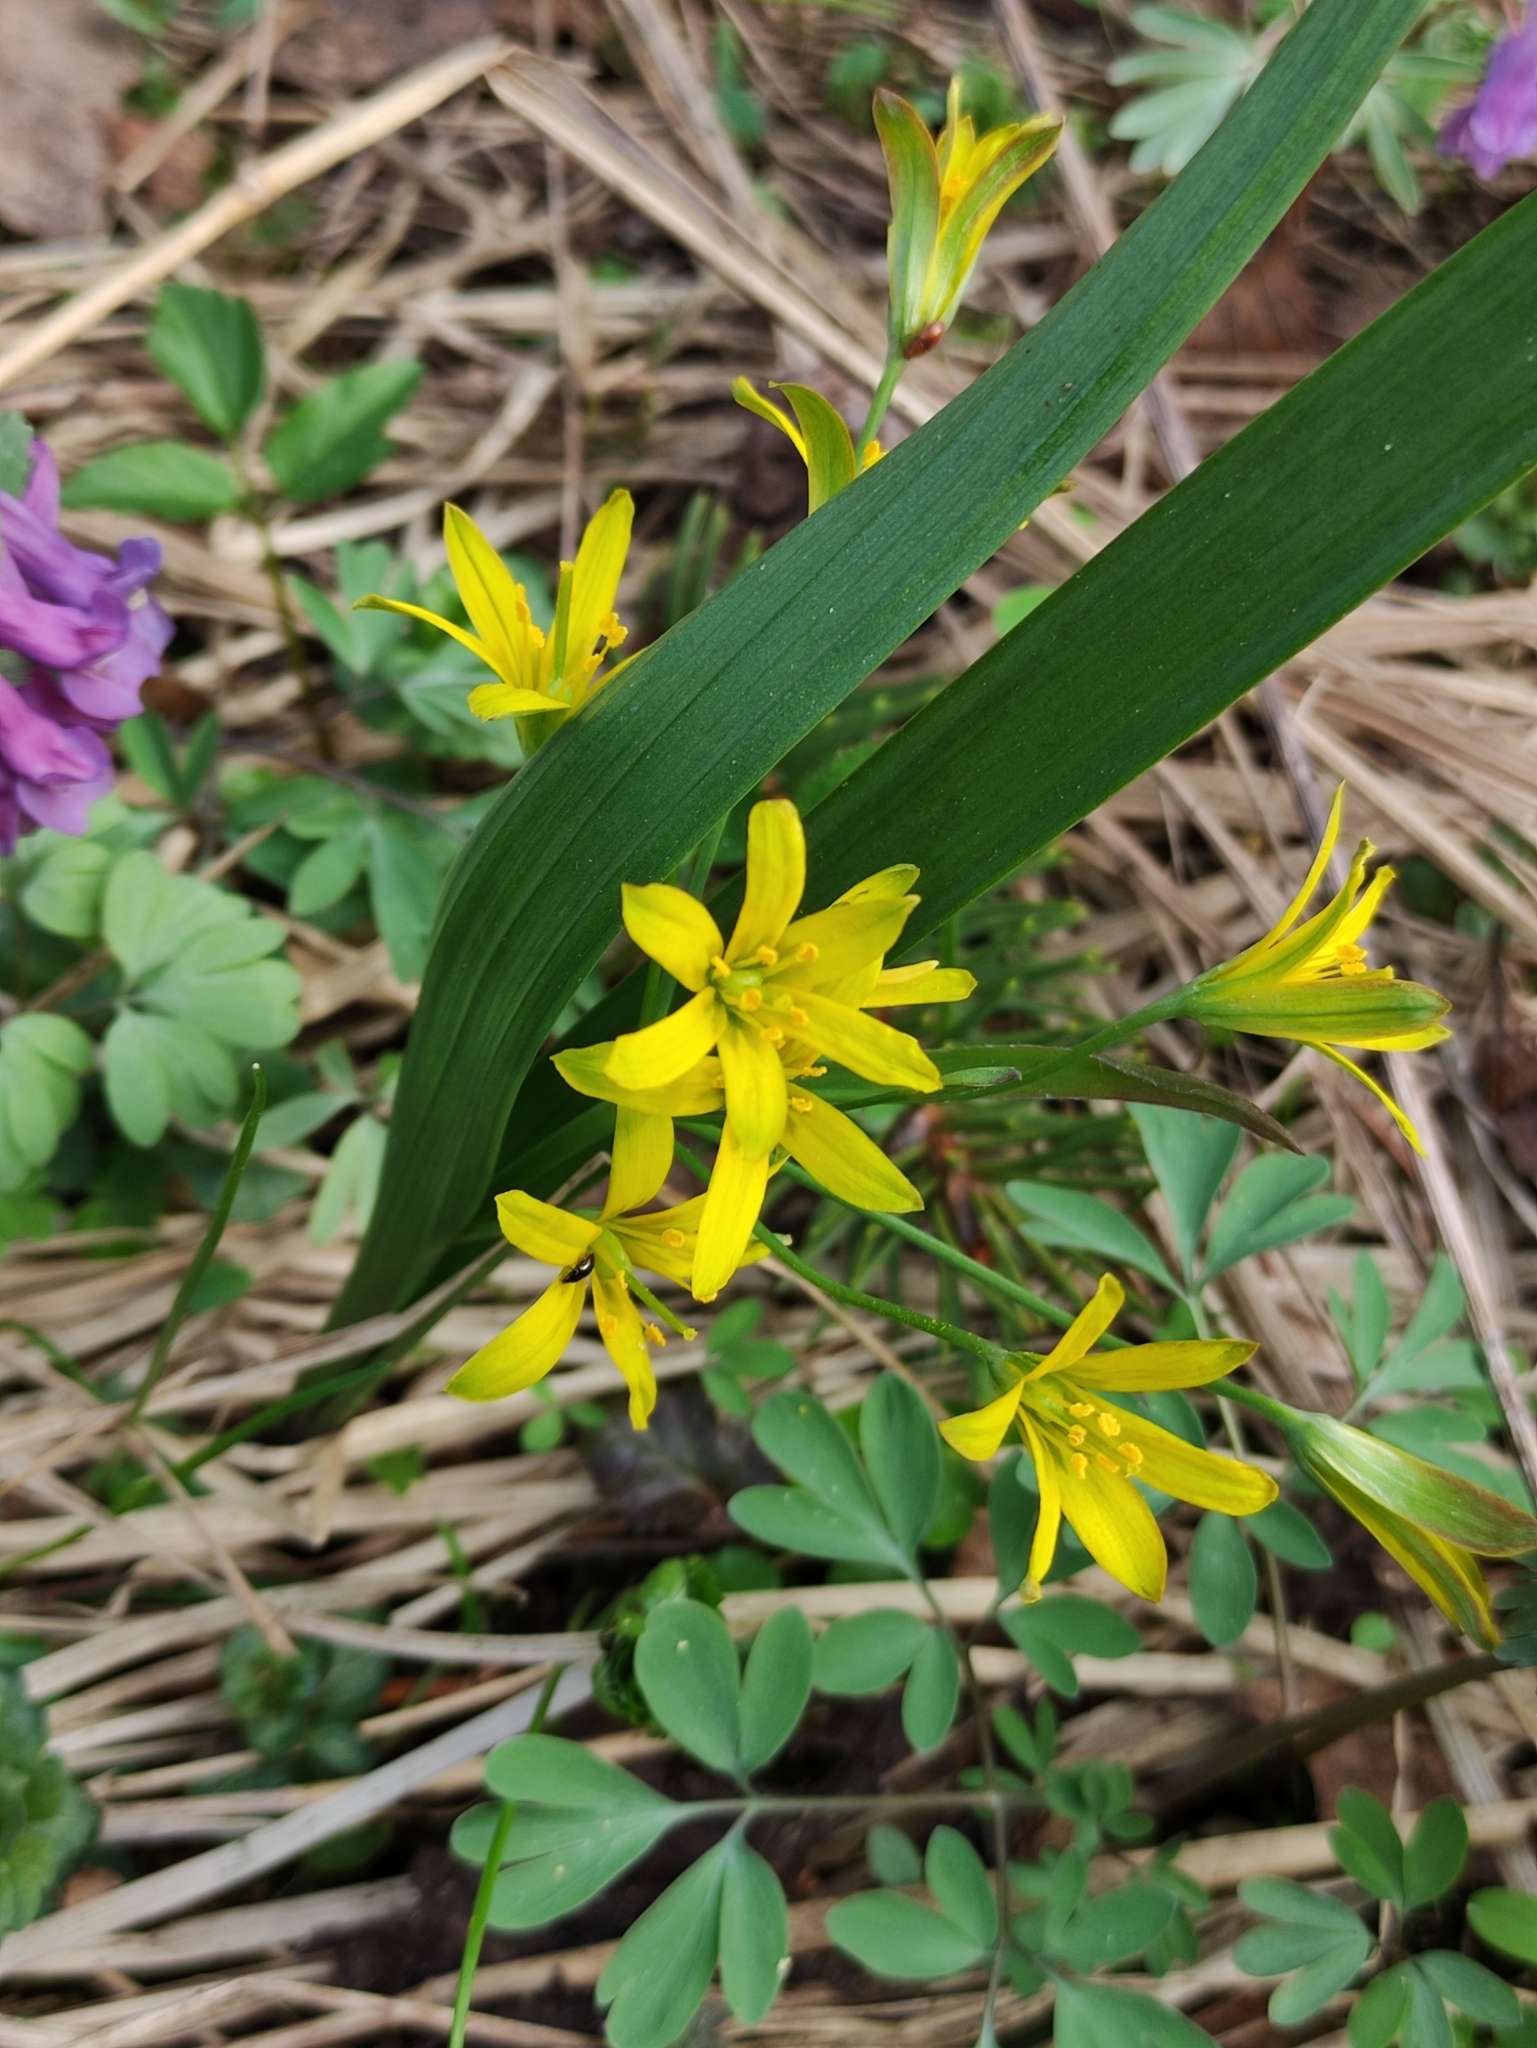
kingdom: Plantae
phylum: Tracheophyta
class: Liliopsida
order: Liliales
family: Liliaceae
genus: Gagea
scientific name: Gagea lutea
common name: Yellow star-of-bethlehem
